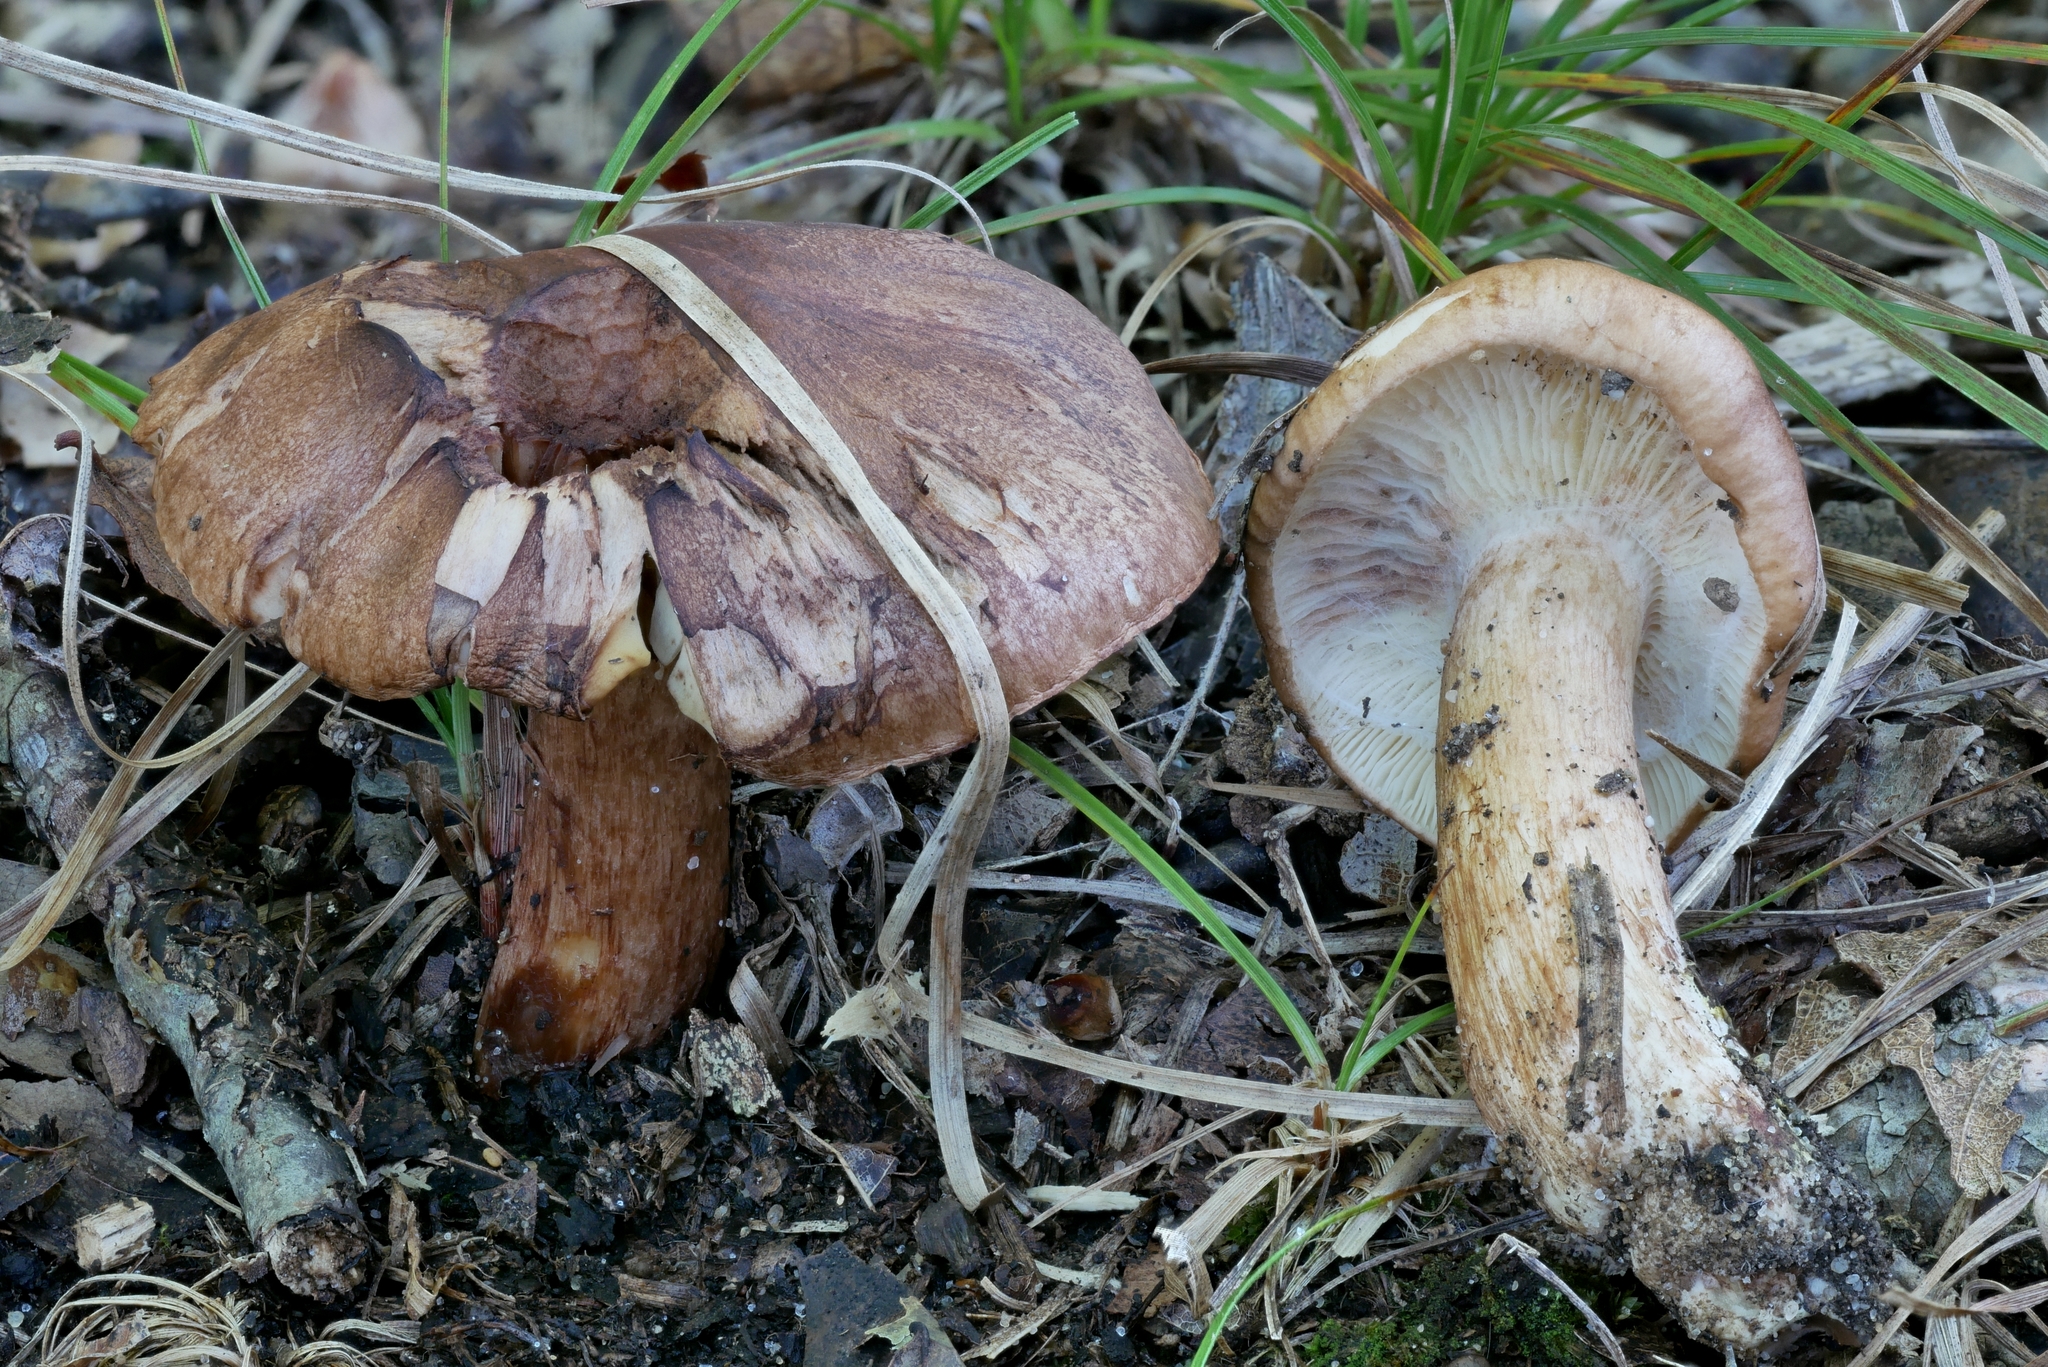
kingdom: Fungi
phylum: Basidiomycota
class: Agaricomycetes
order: Agaricales
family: Tricholomataceae
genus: Tricholoma
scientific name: Tricholoma brunneoluteum
